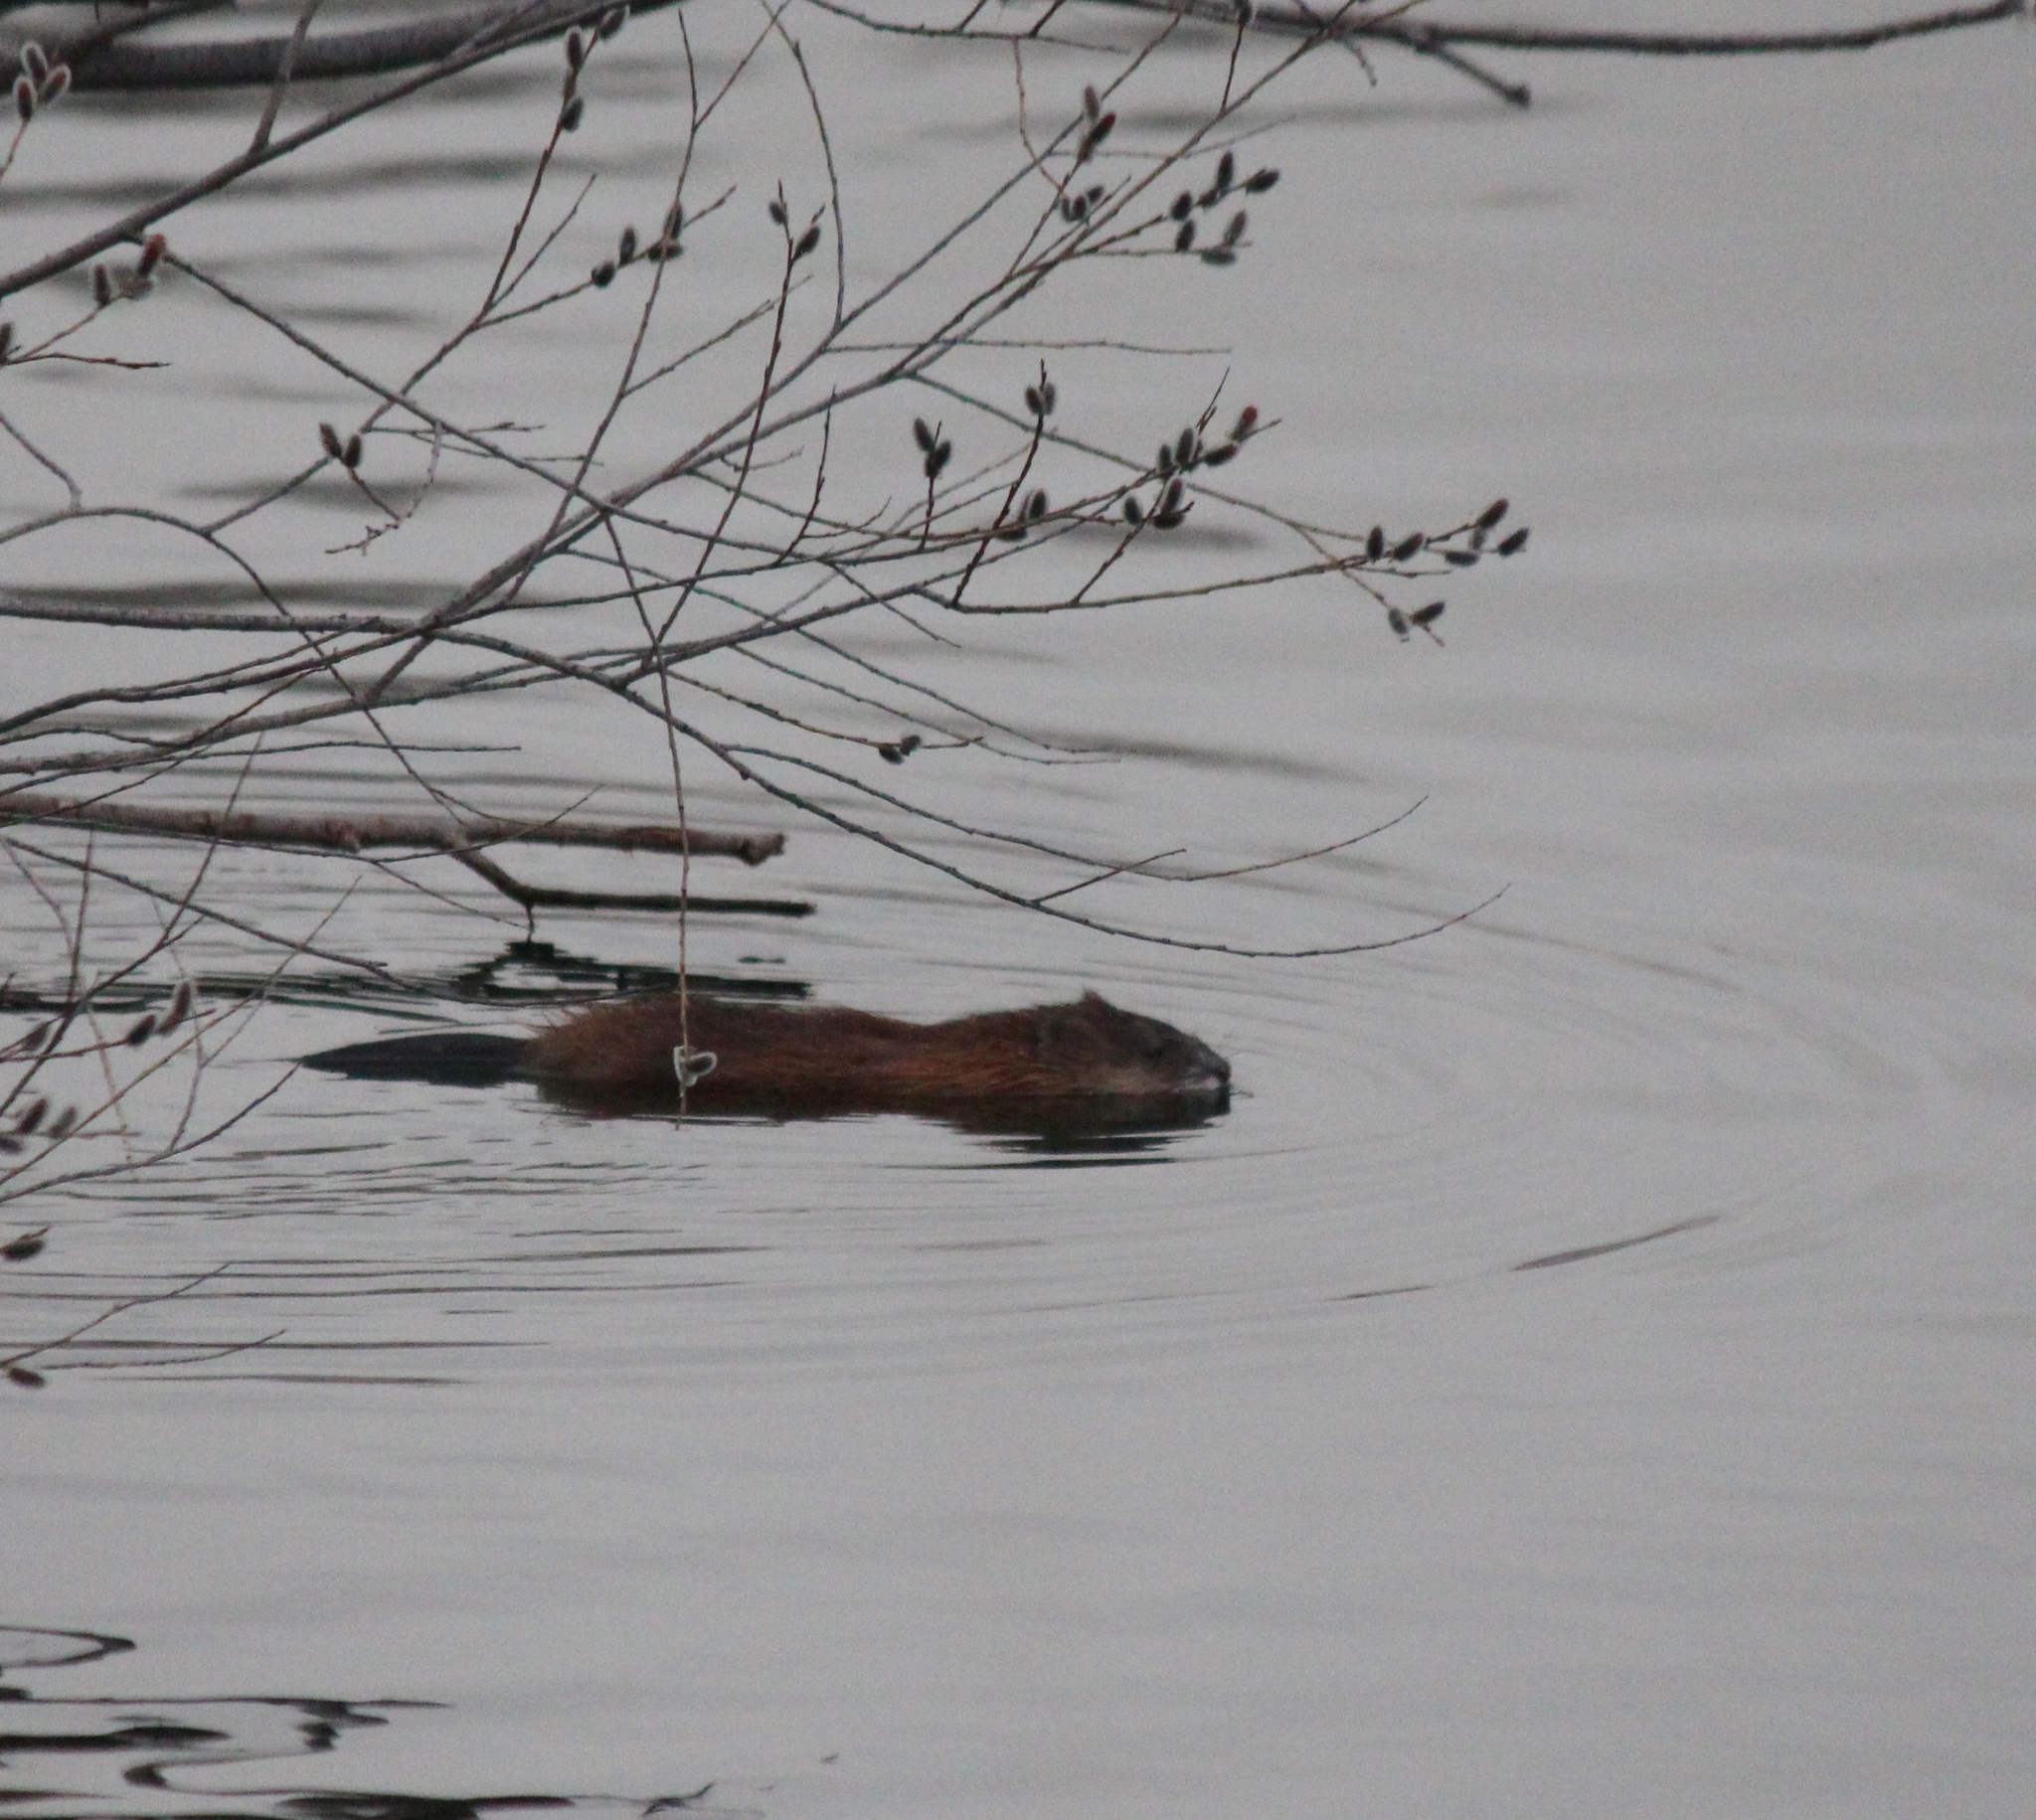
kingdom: Animalia
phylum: Chordata
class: Mammalia
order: Rodentia
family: Cricetidae
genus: Ondatra
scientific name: Ondatra zibethicus
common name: Muskrat
